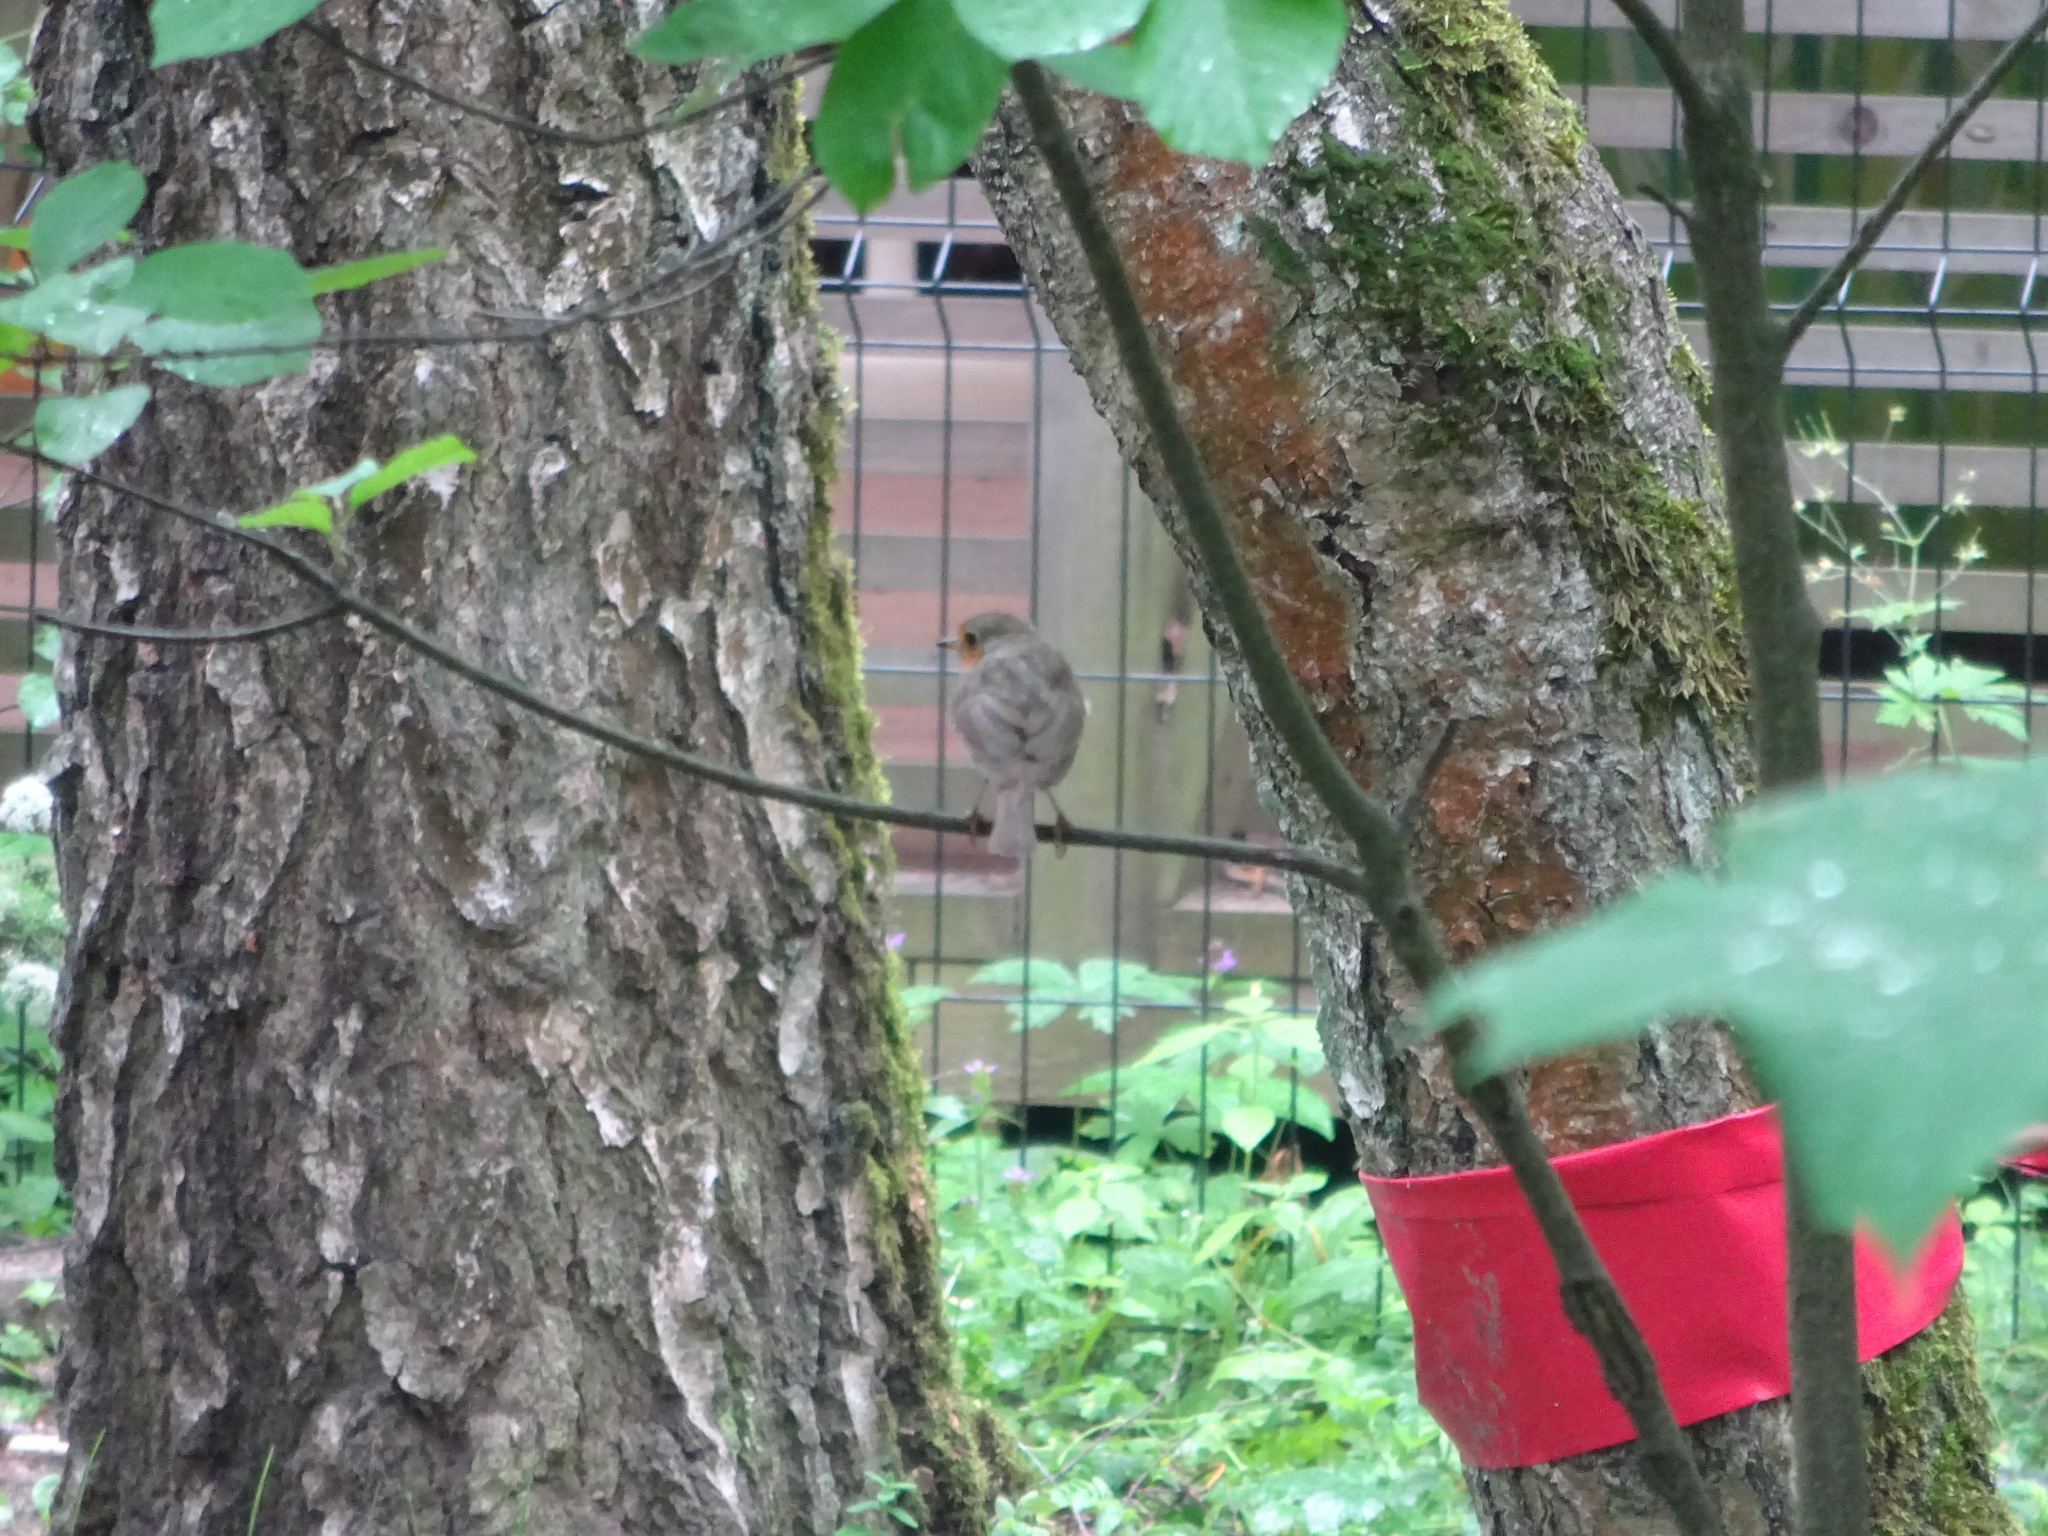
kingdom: Animalia
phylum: Chordata
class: Aves
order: Passeriformes
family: Muscicapidae
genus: Erithacus
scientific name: Erithacus rubecula
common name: European robin
